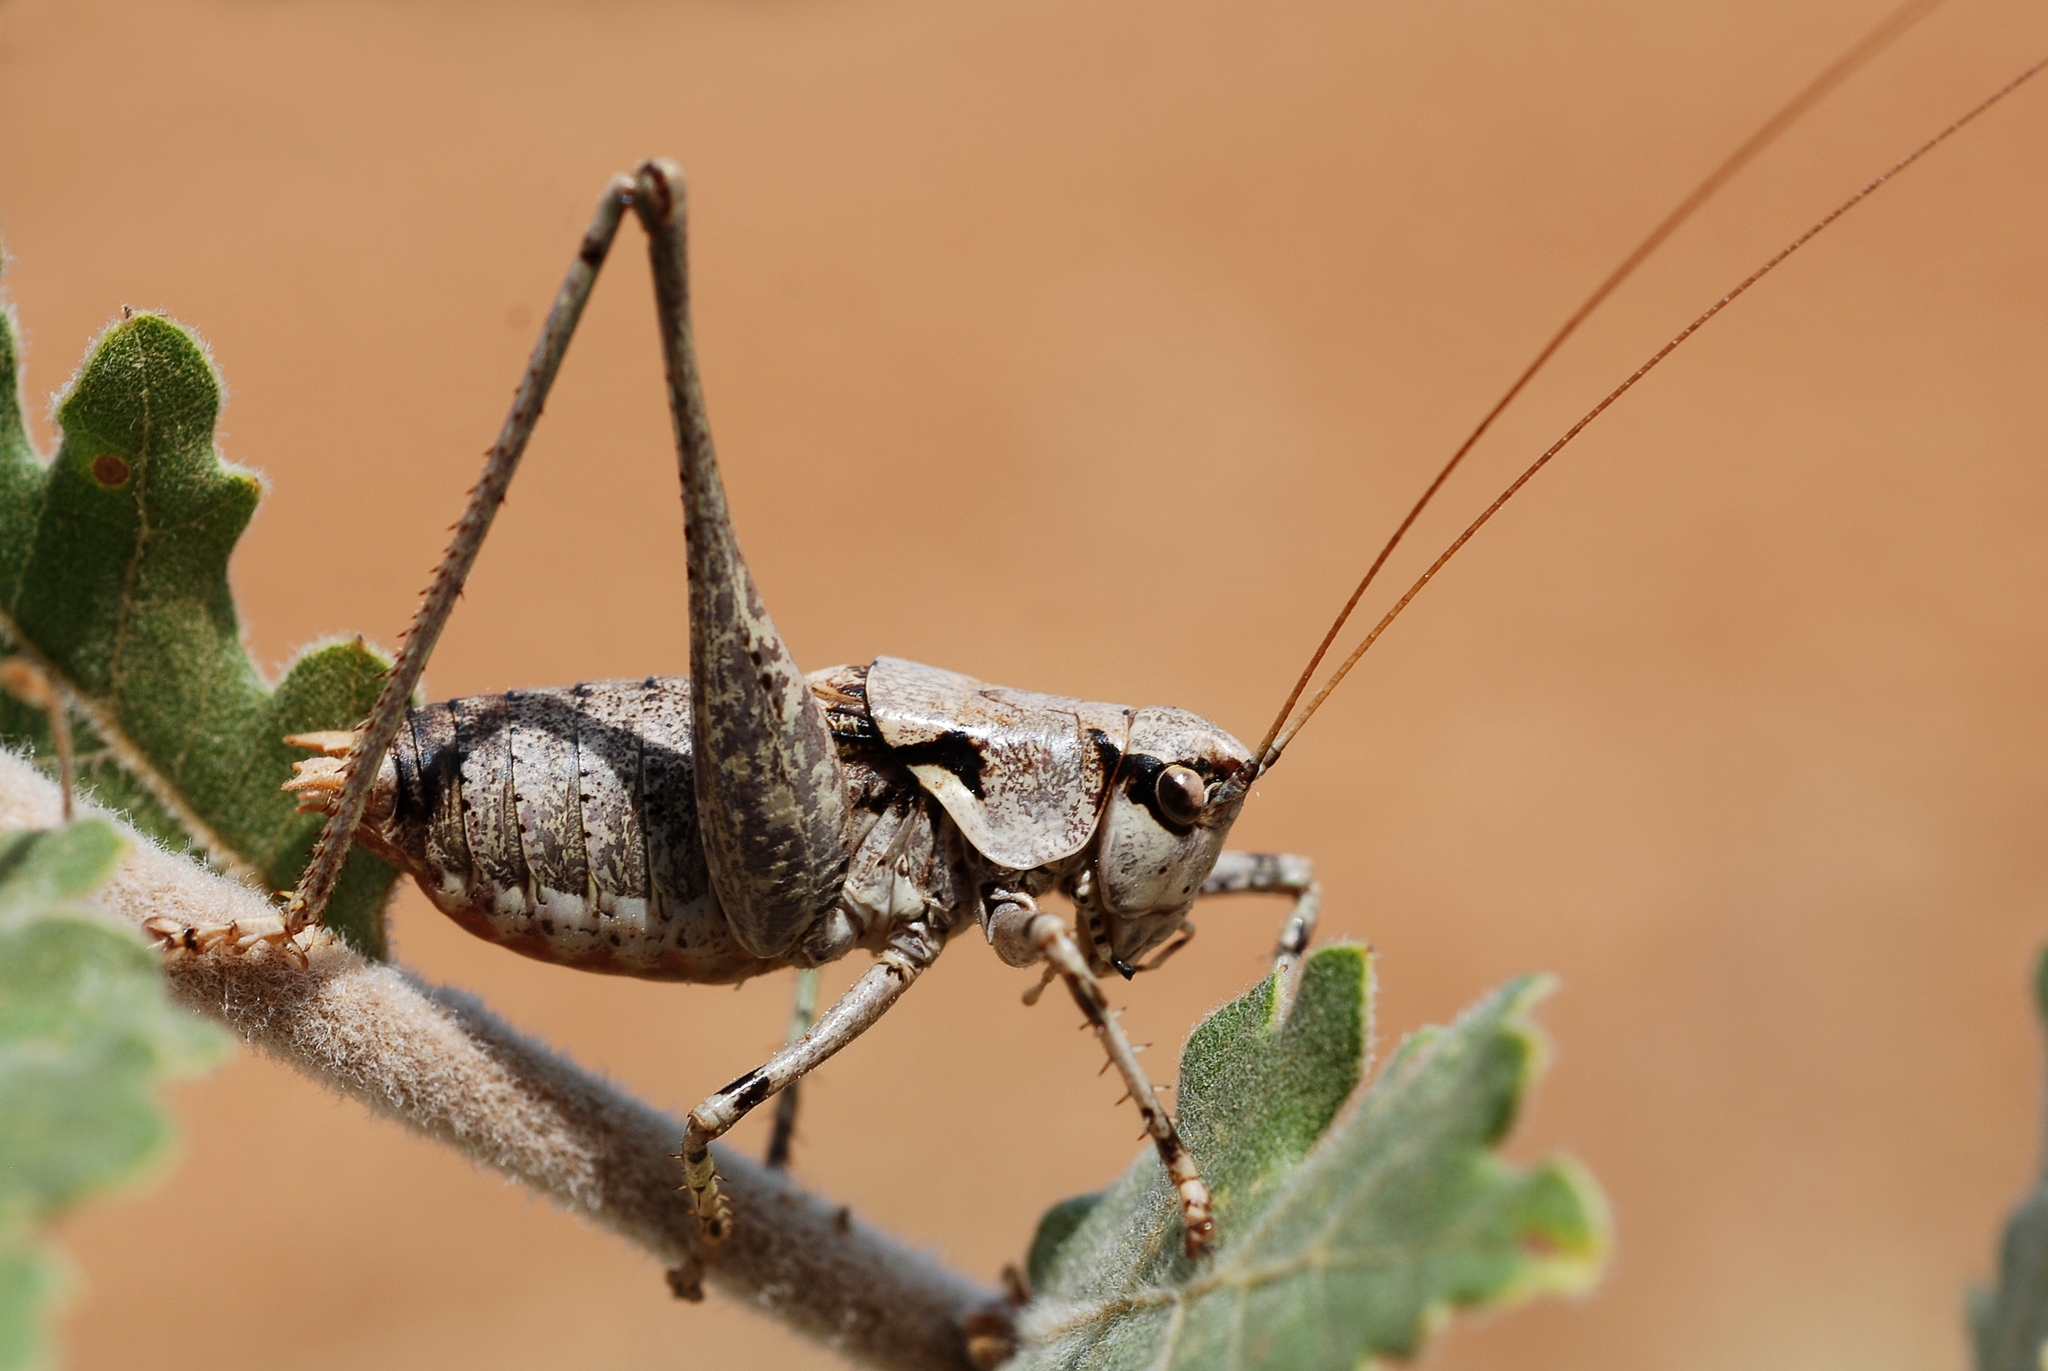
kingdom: Animalia
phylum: Arthropoda
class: Insecta
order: Orthoptera
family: Tettigoniidae
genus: Antaxius
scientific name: Antaxius pedestris
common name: Common mountain bush-cricket
